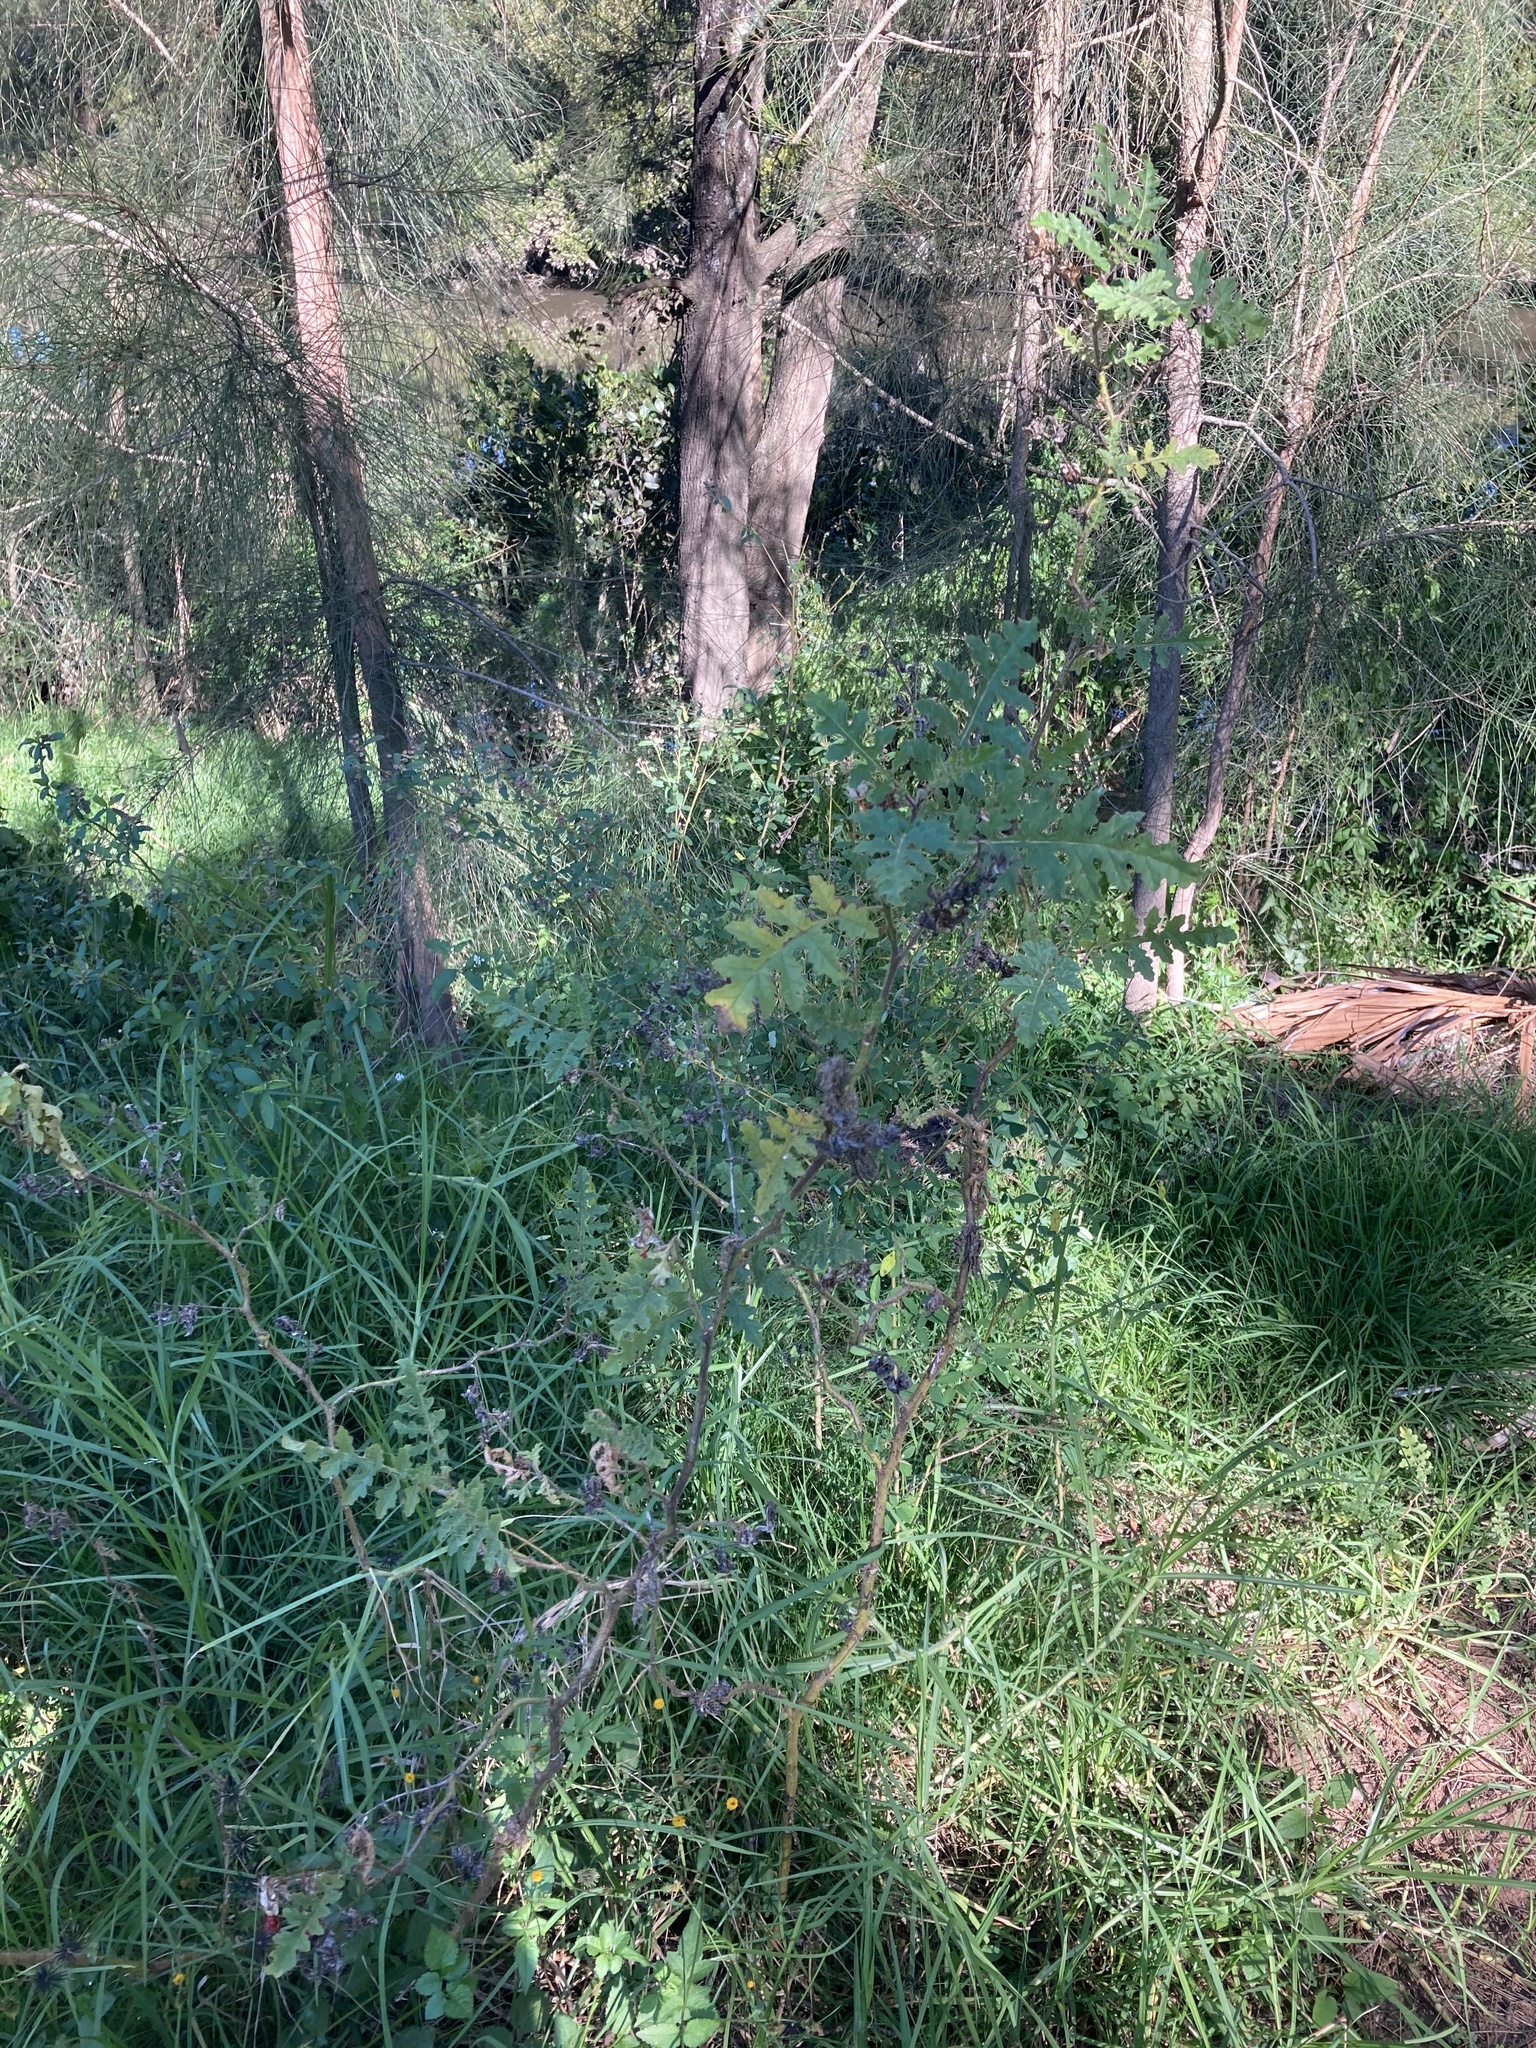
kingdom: Plantae
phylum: Tracheophyta
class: Magnoliopsida
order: Solanales
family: Solanaceae
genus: Solanum
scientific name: Solanum sisymbriifolium
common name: Red buffalo-bur
